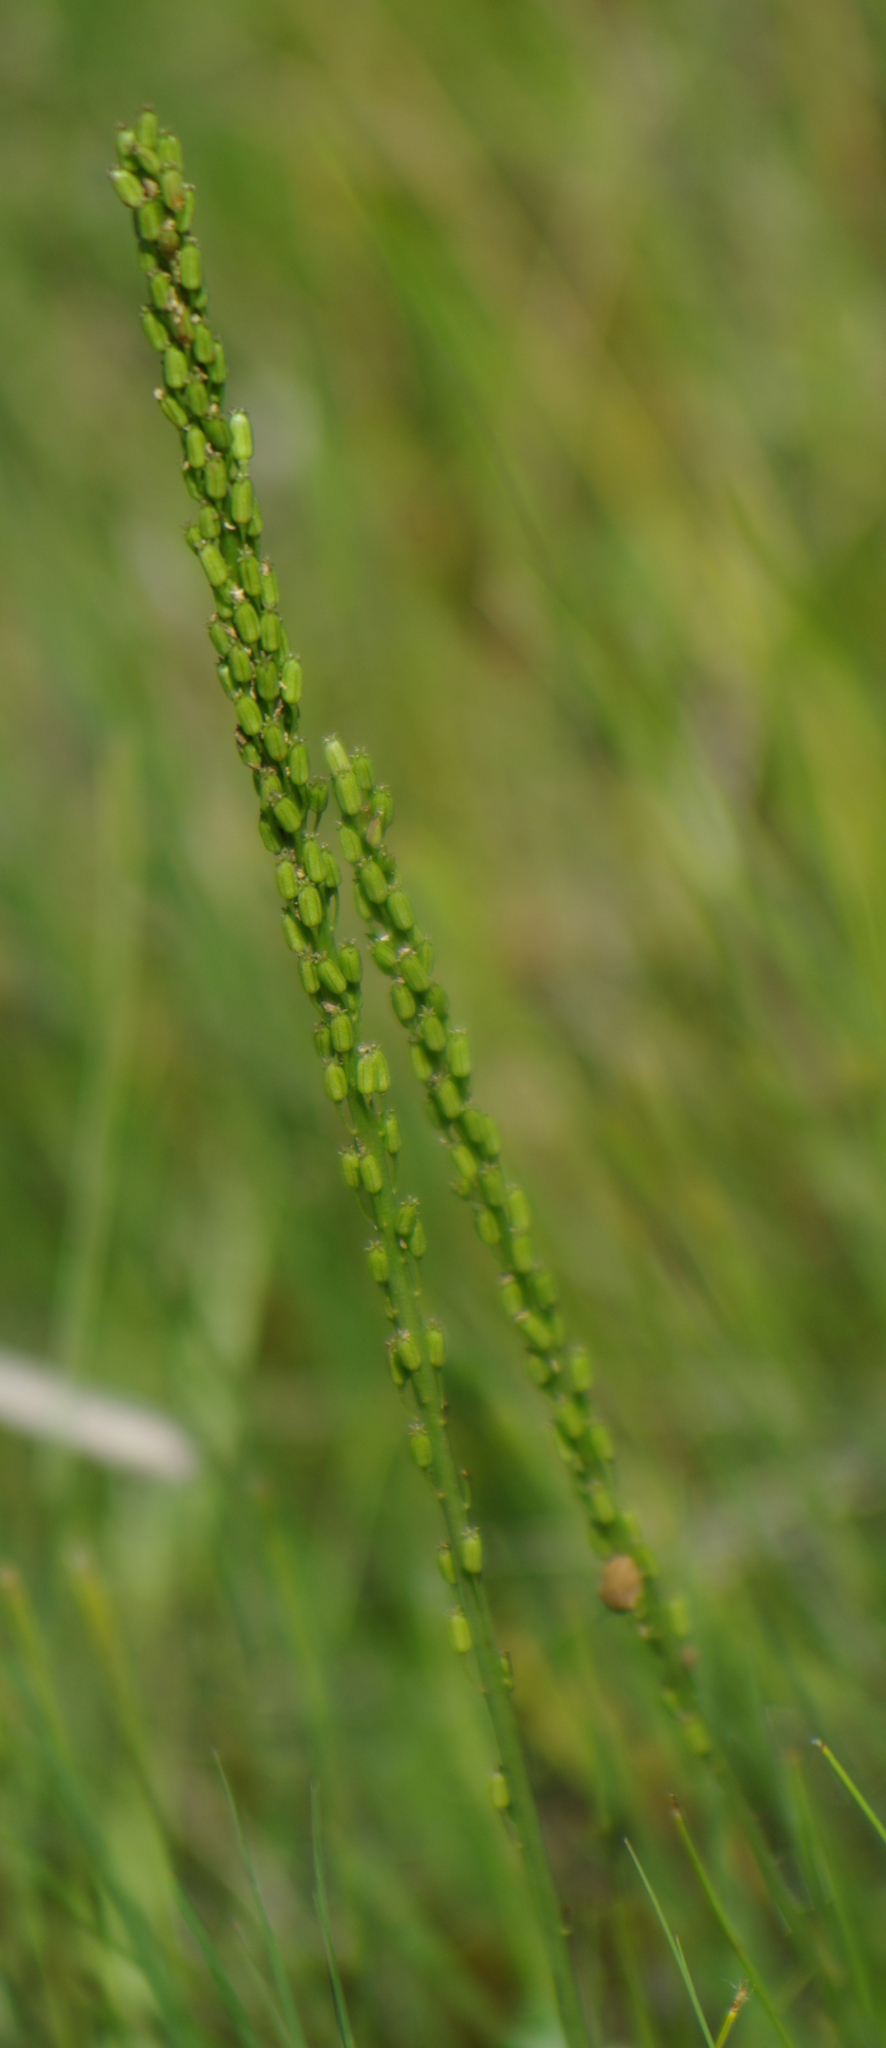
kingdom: Plantae
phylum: Tracheophyta
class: Liliopsida
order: Alismatales
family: Juncaginaceae
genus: Triglochin
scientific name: Triglochin maritima
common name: Sea arrowgrass
